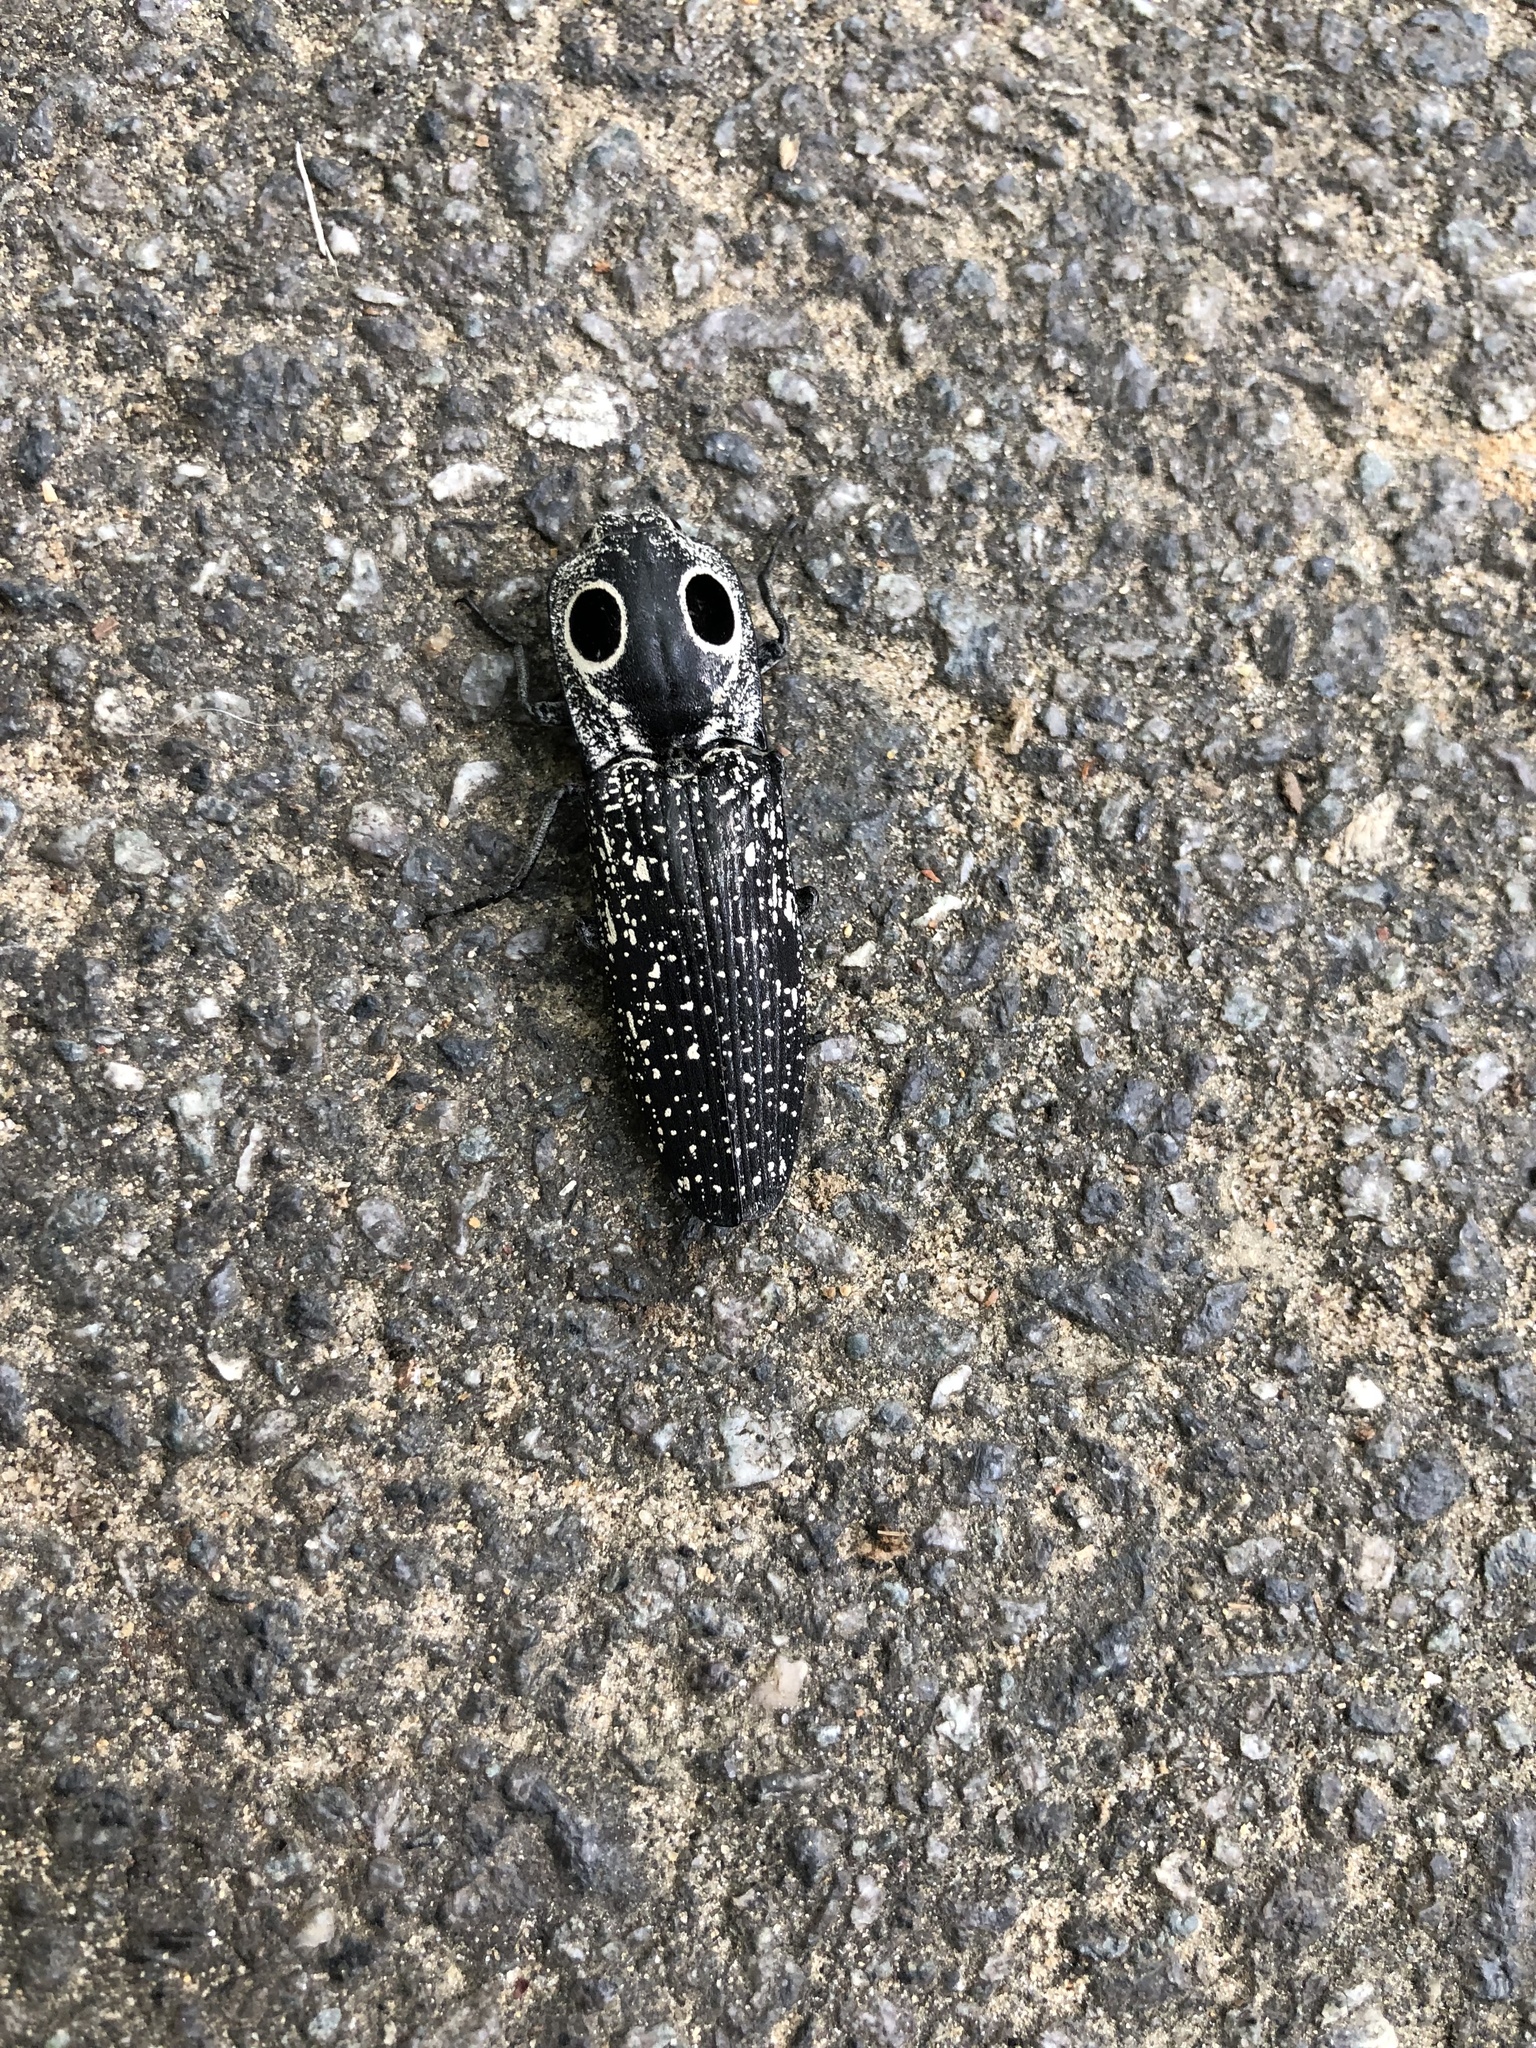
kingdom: Animalia
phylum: Arthropoda
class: Insecta
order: Coleoptera
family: Elateridae
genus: Alaus
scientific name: Alaus oculatus
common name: Eastern eyed click beetle
